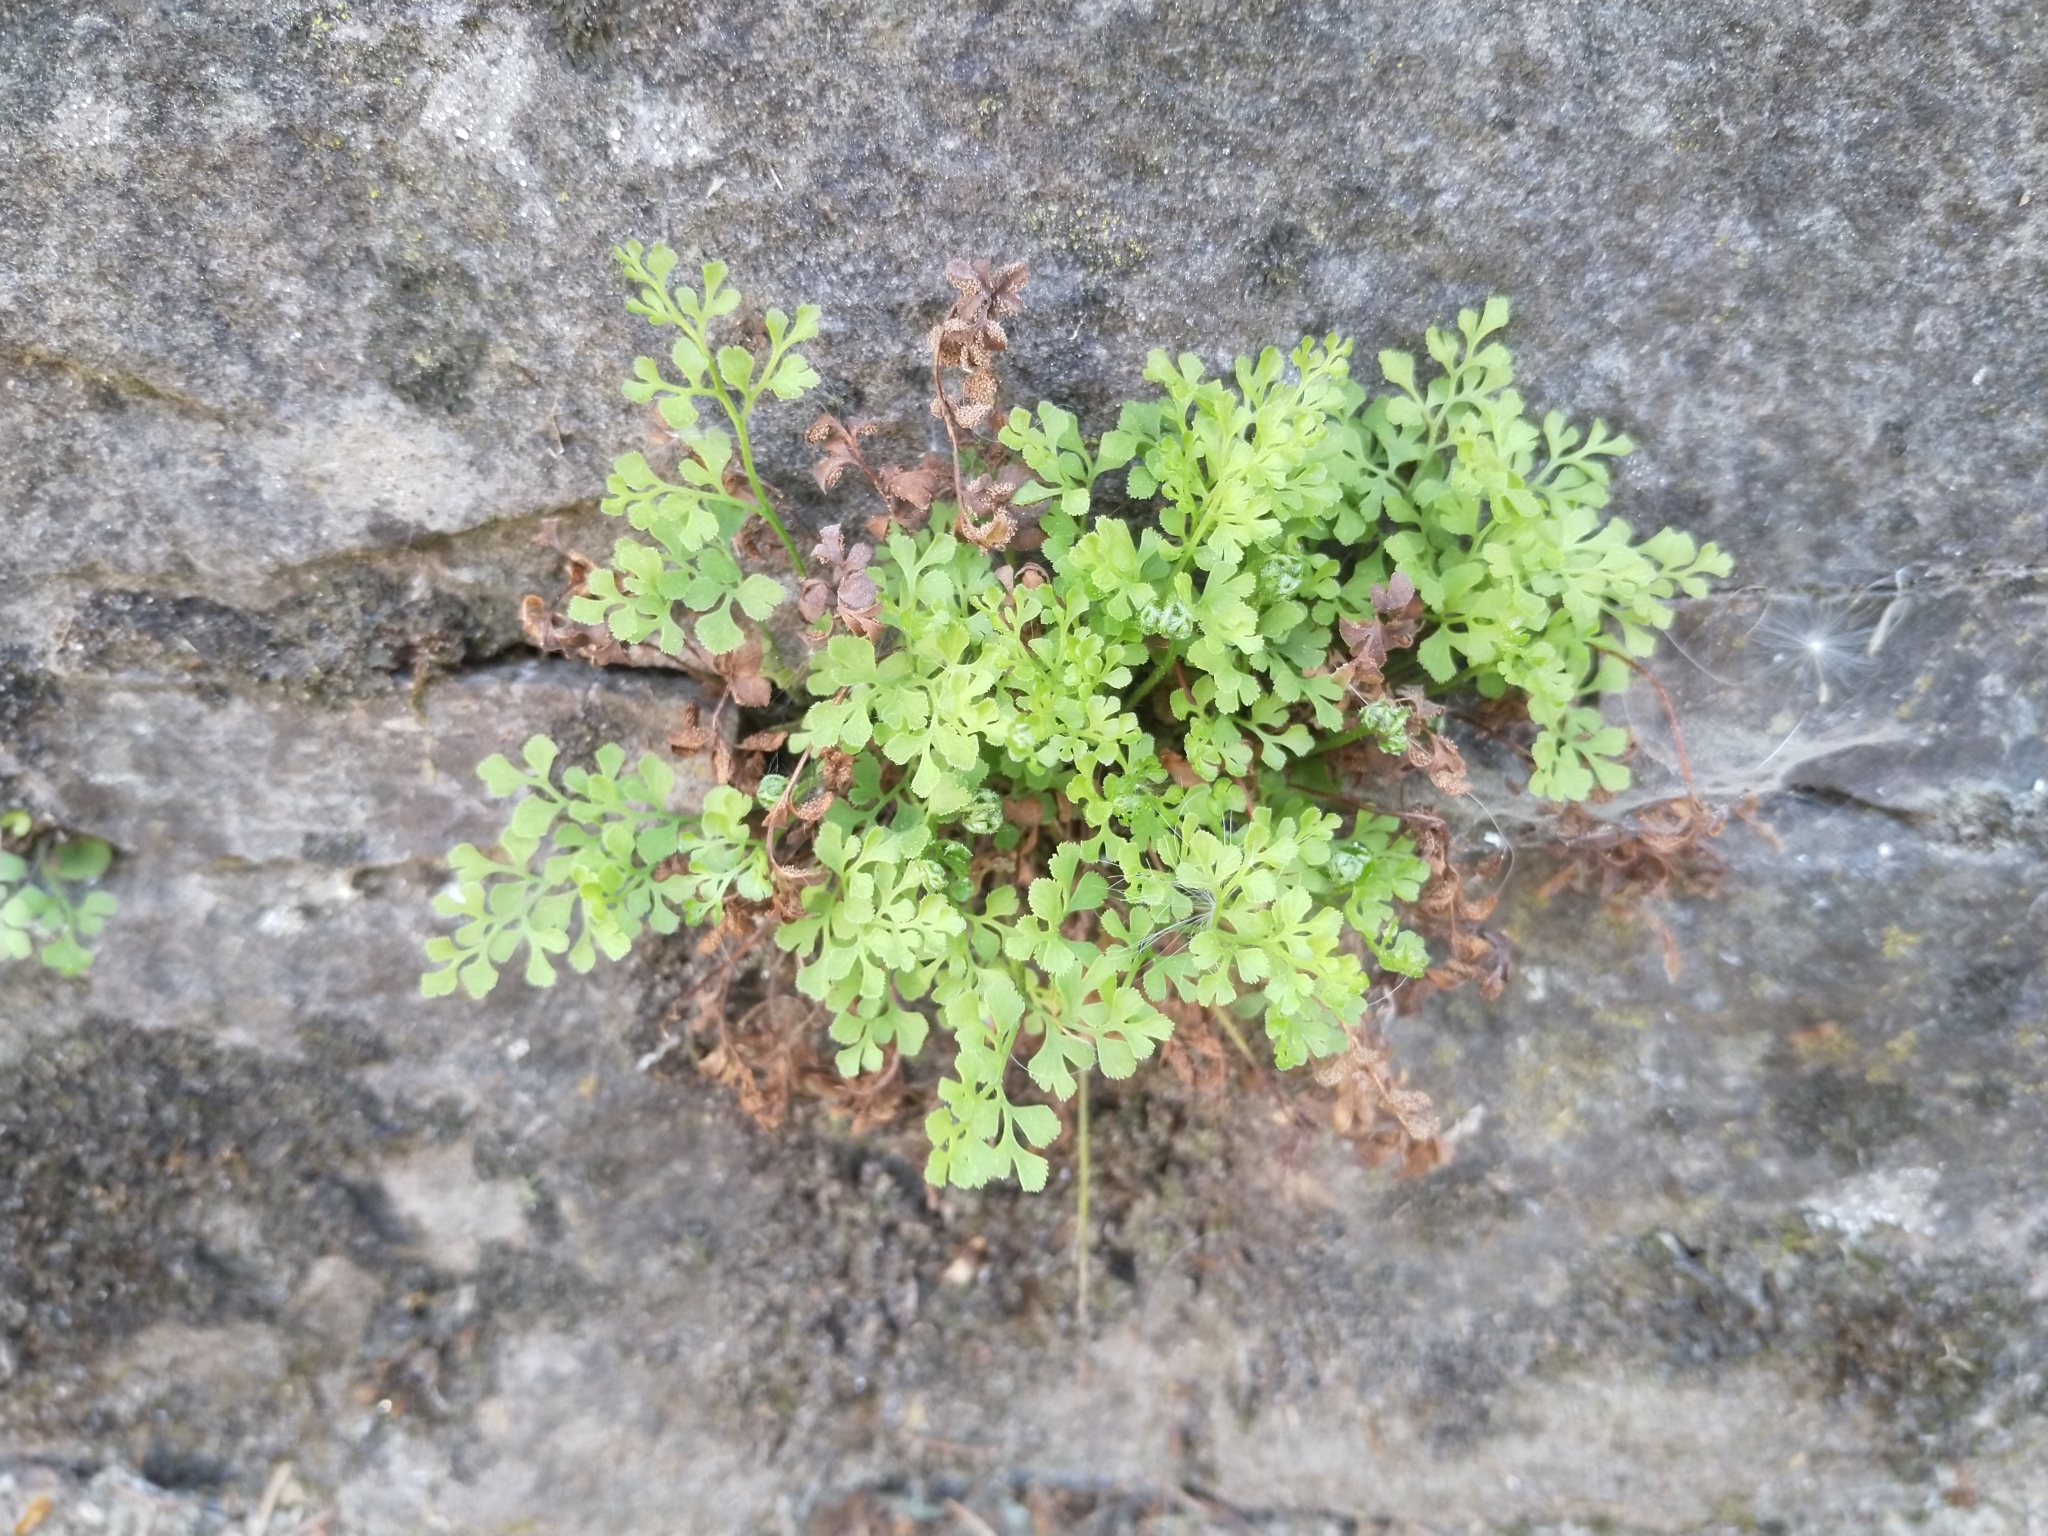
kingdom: Plantae
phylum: Tracheophyta
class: Polypodiopsida
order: Polypodiales
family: Aspleniaceae
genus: Asplenium
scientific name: Asplenium ruta-muraria
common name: Wall-rue
